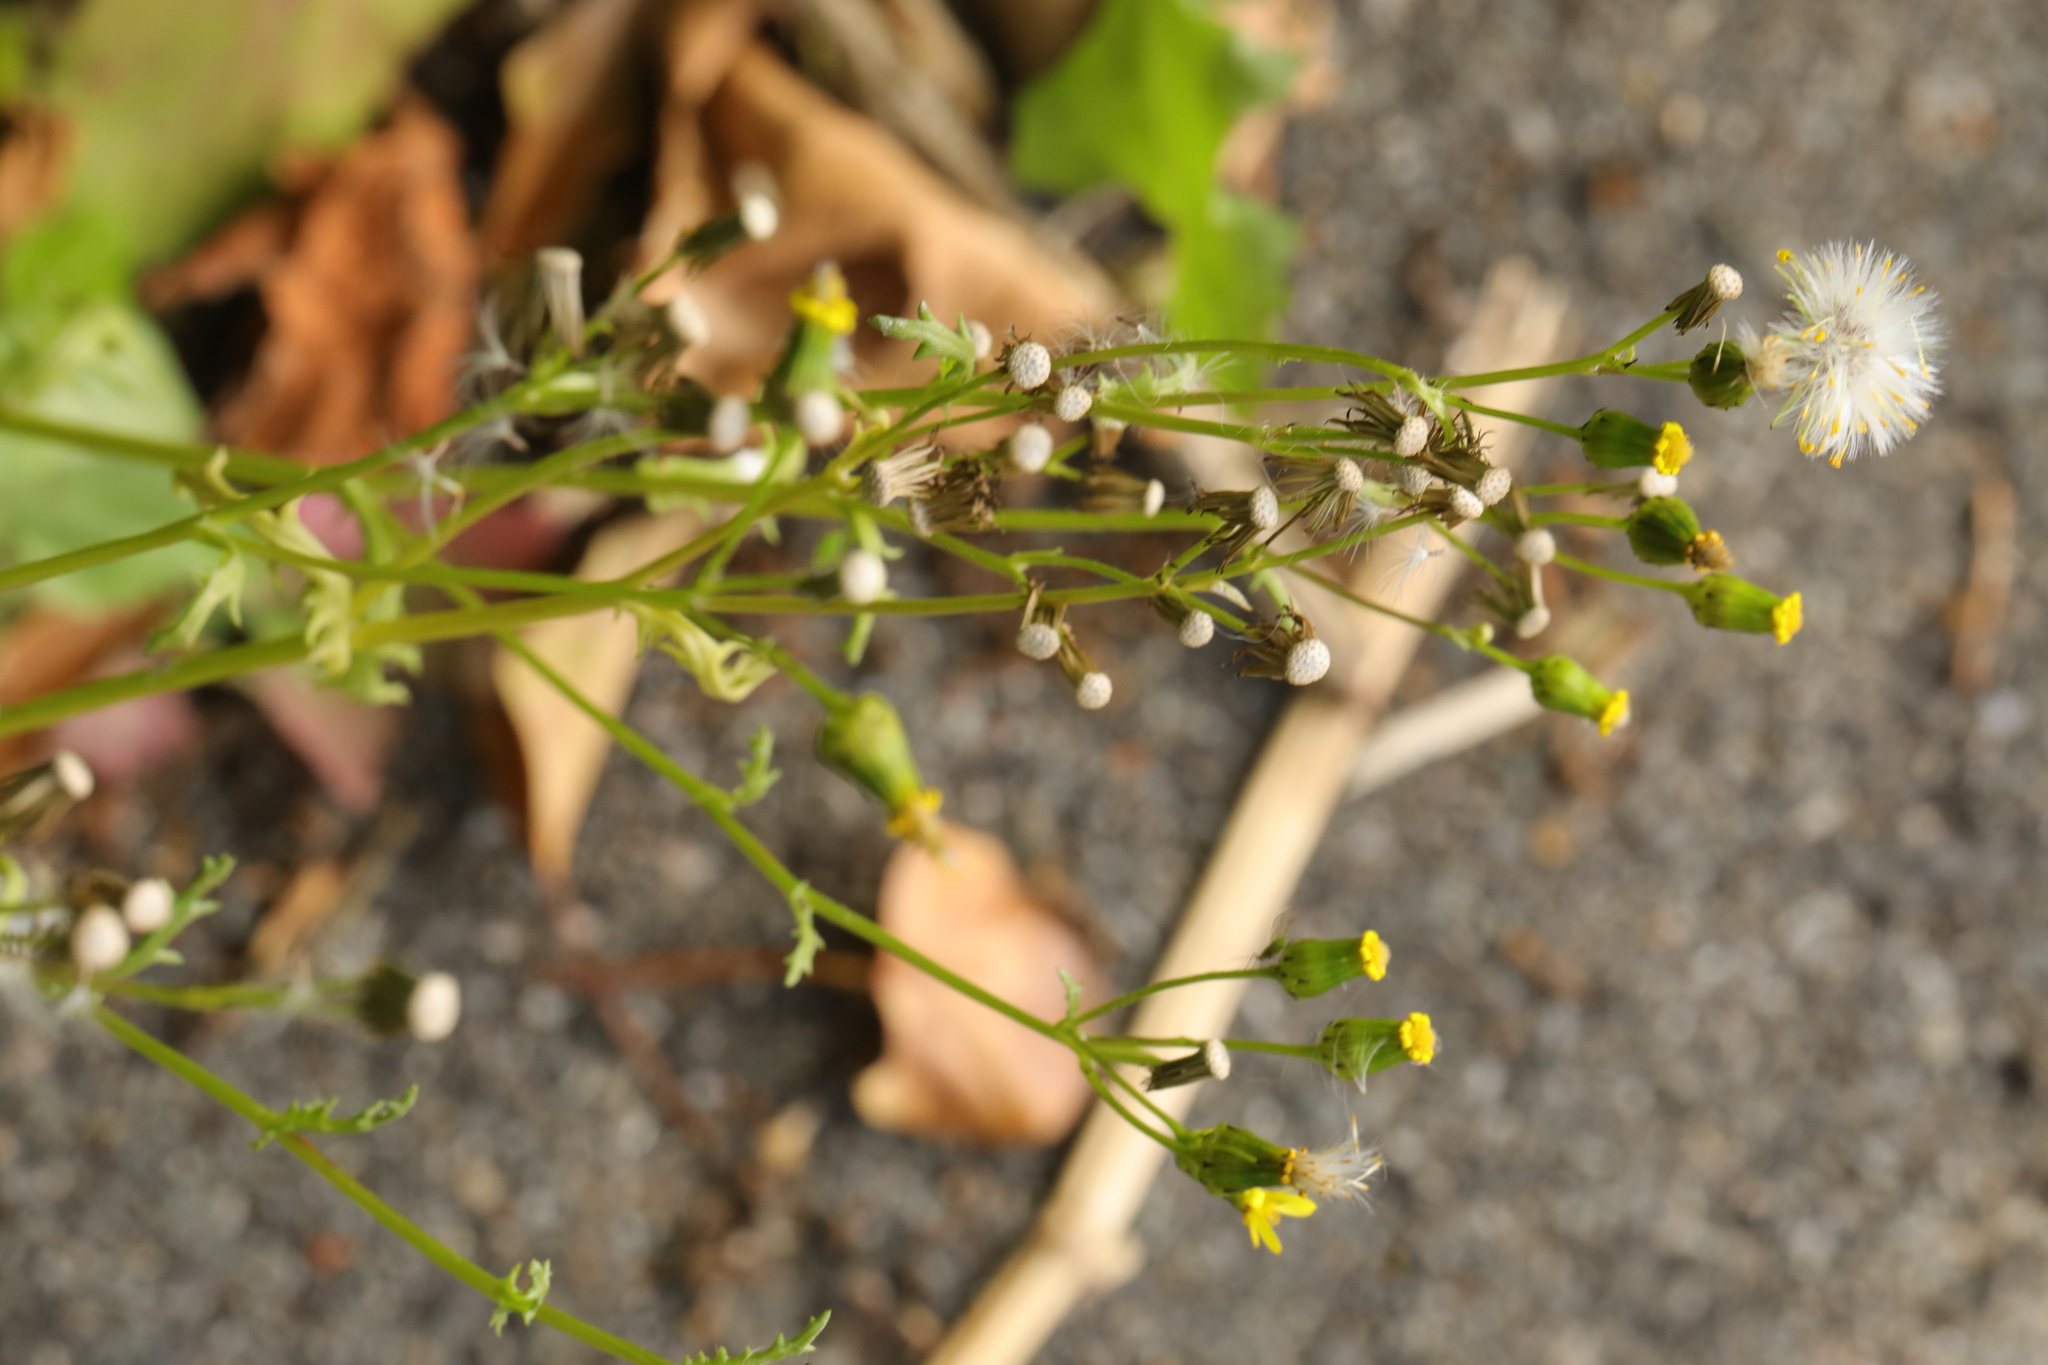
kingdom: Plantae
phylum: Tracheophyta
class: Magnoliopsida
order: Asterales
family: Asteraceae
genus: Senecio
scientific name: Senecio sylvaticus
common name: Woodland ragwort
